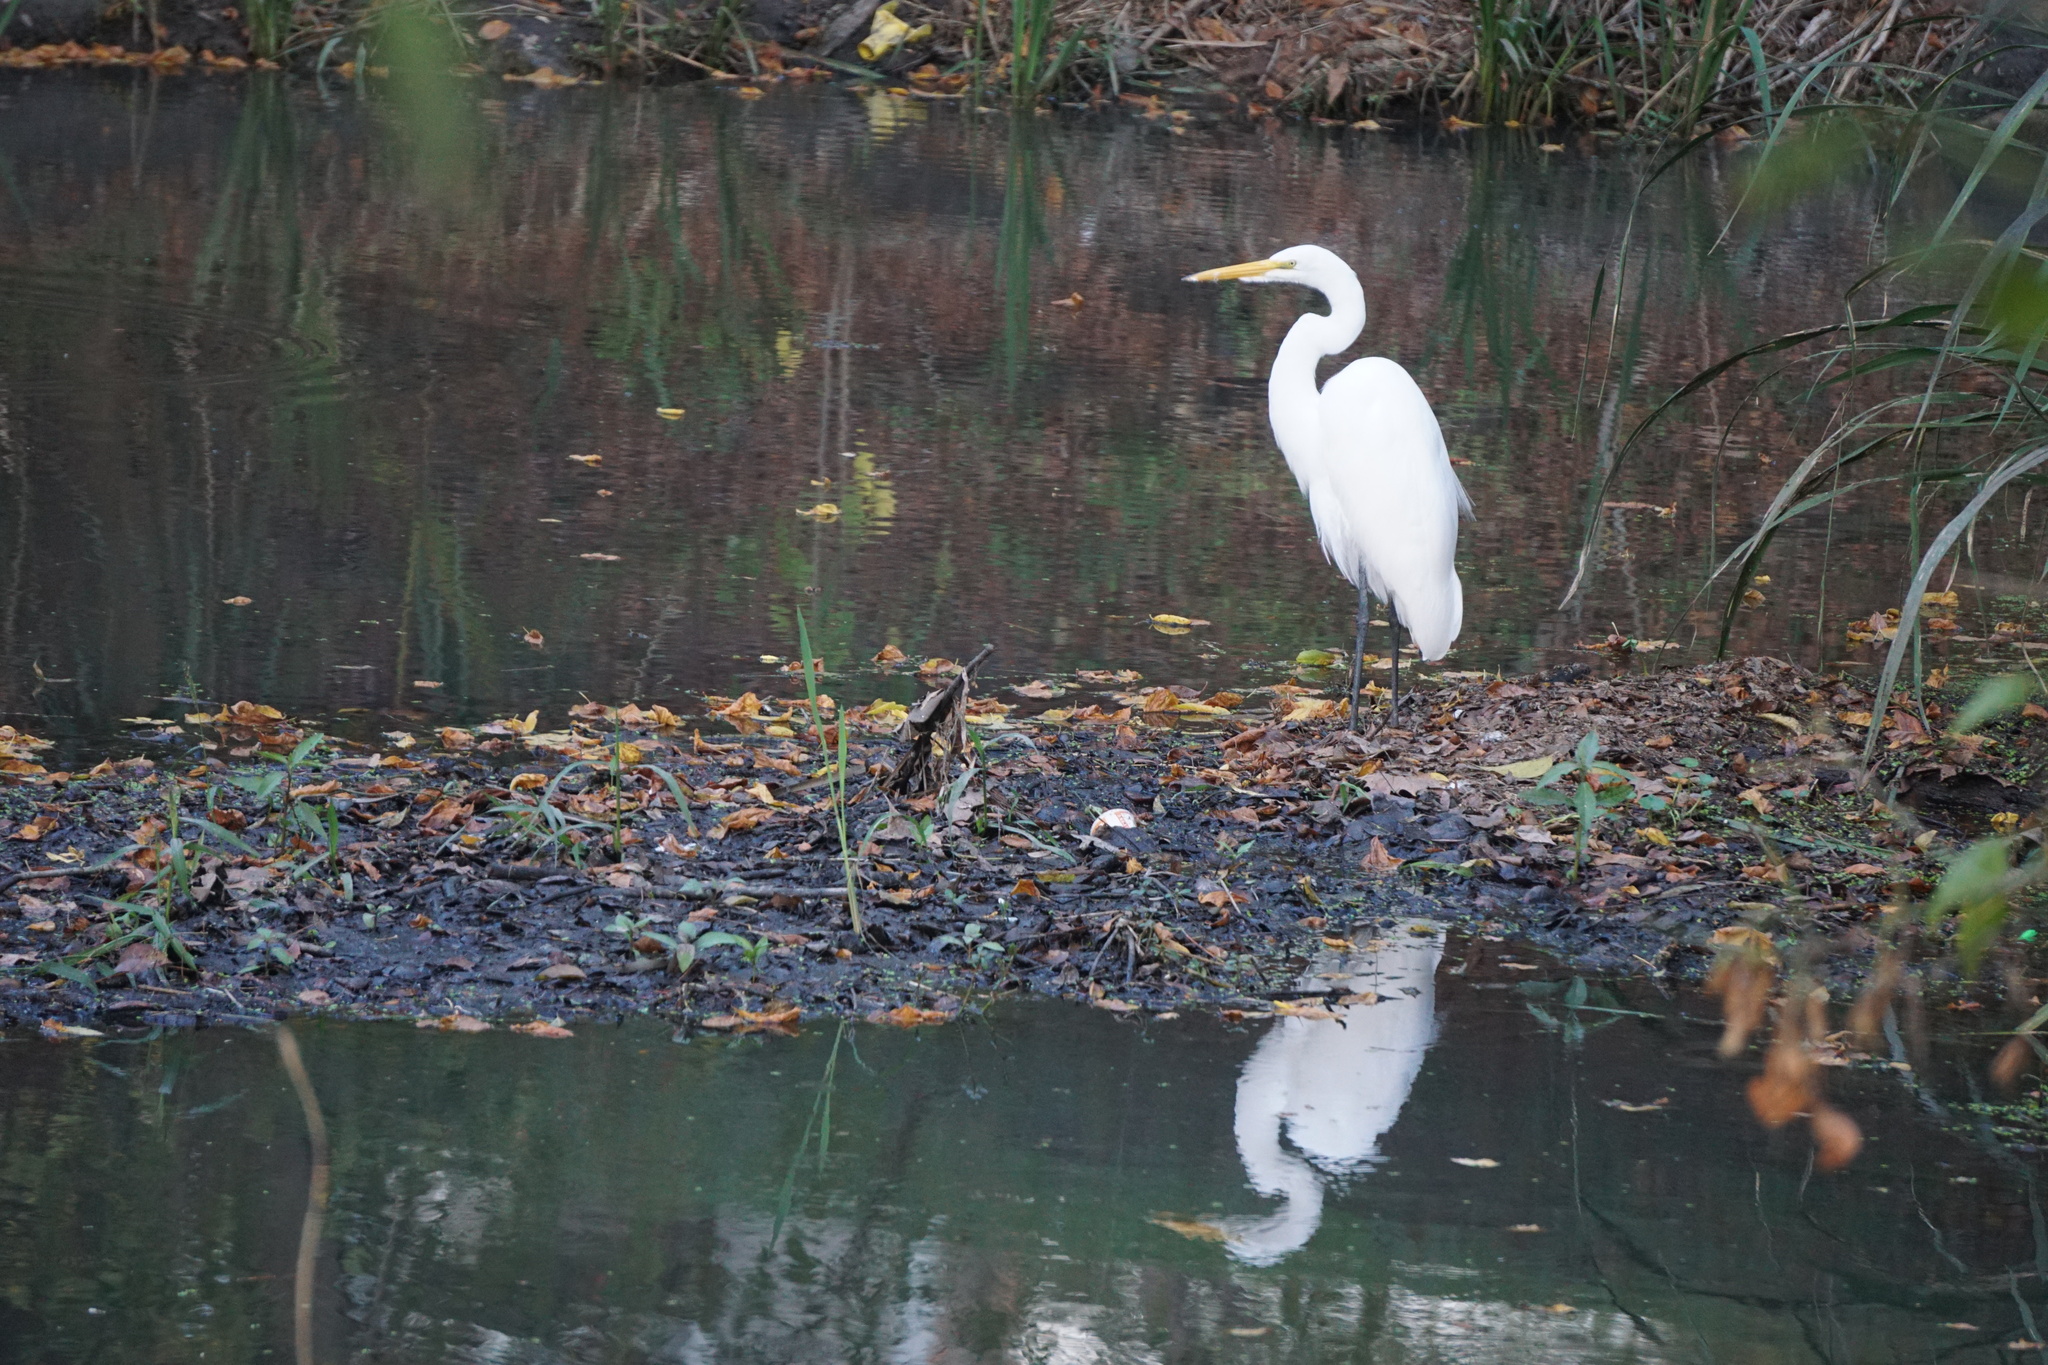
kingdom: Animalia
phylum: Chordata
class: Aves
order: Pelecaniformes
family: Ardeidae
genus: Ardea
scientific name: Ardea alba
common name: Great egret
